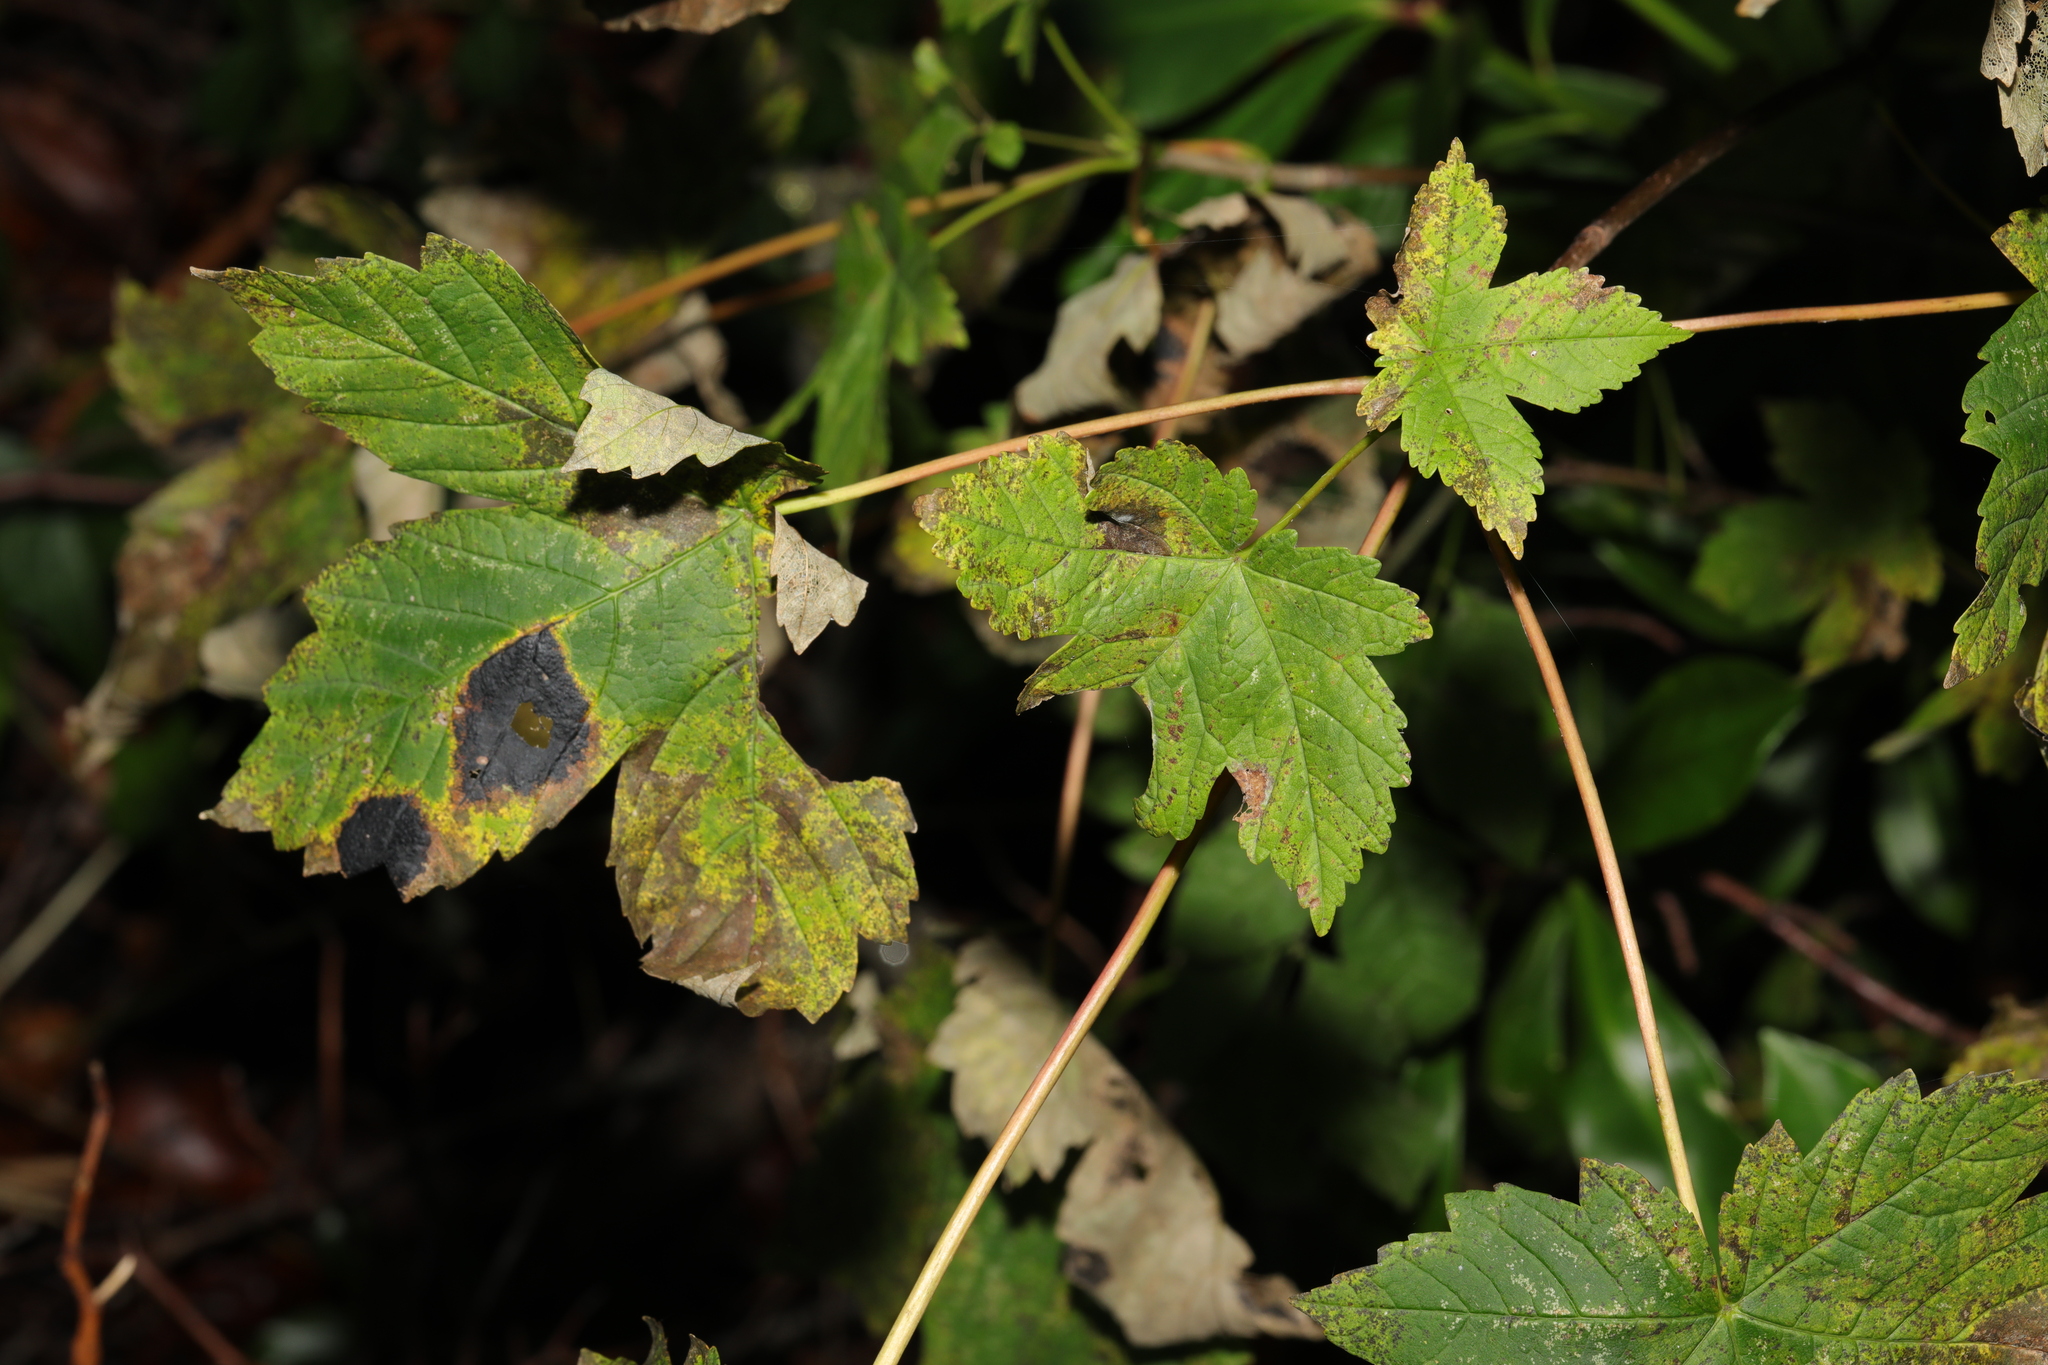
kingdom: Plantae
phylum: Tracheophyta
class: Magnoliopsida
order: Sapindales
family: Sapindaceae
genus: Acer
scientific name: Acer pseudoplatanus
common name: Sycamore
